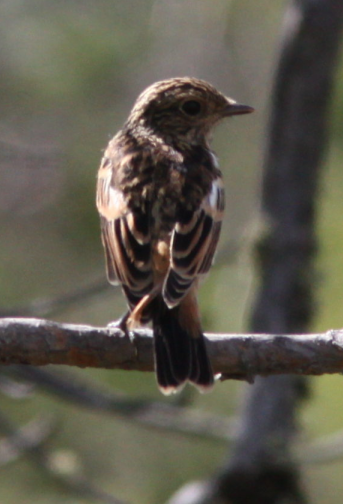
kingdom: Animalia
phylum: Chordata
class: Aves
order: Passeriformes
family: Muscicapidae
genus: Saxicola
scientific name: Saxicola maurus
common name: Siberian stonechat
